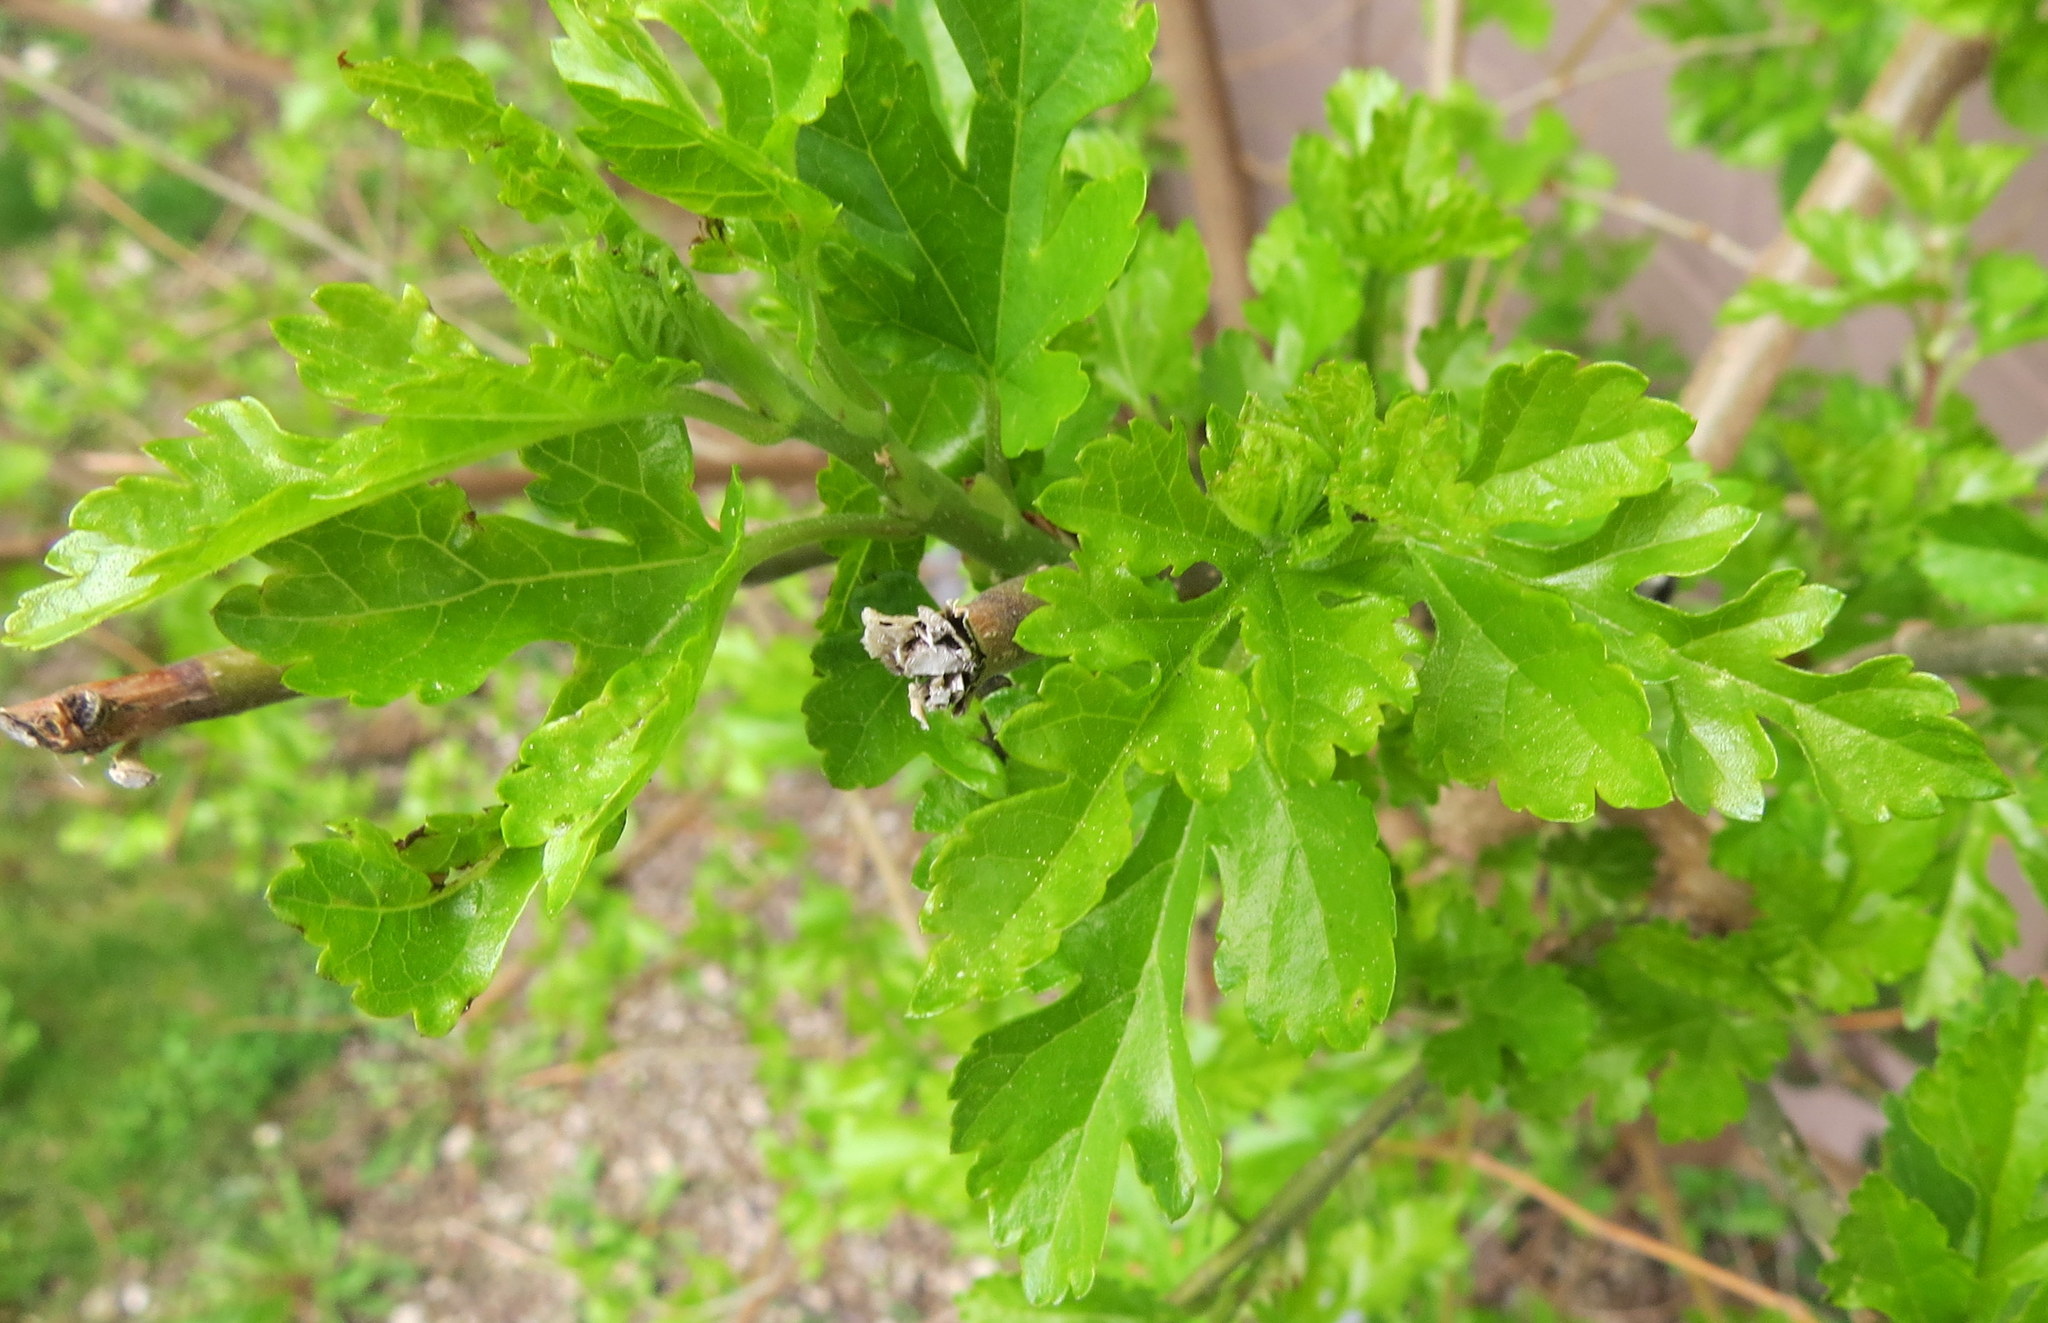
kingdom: Plantae
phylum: Tracheophyta
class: Magnoliopsida
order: Rosales
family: Moraceae
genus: Morus
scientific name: Morus alba
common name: White mulberry
